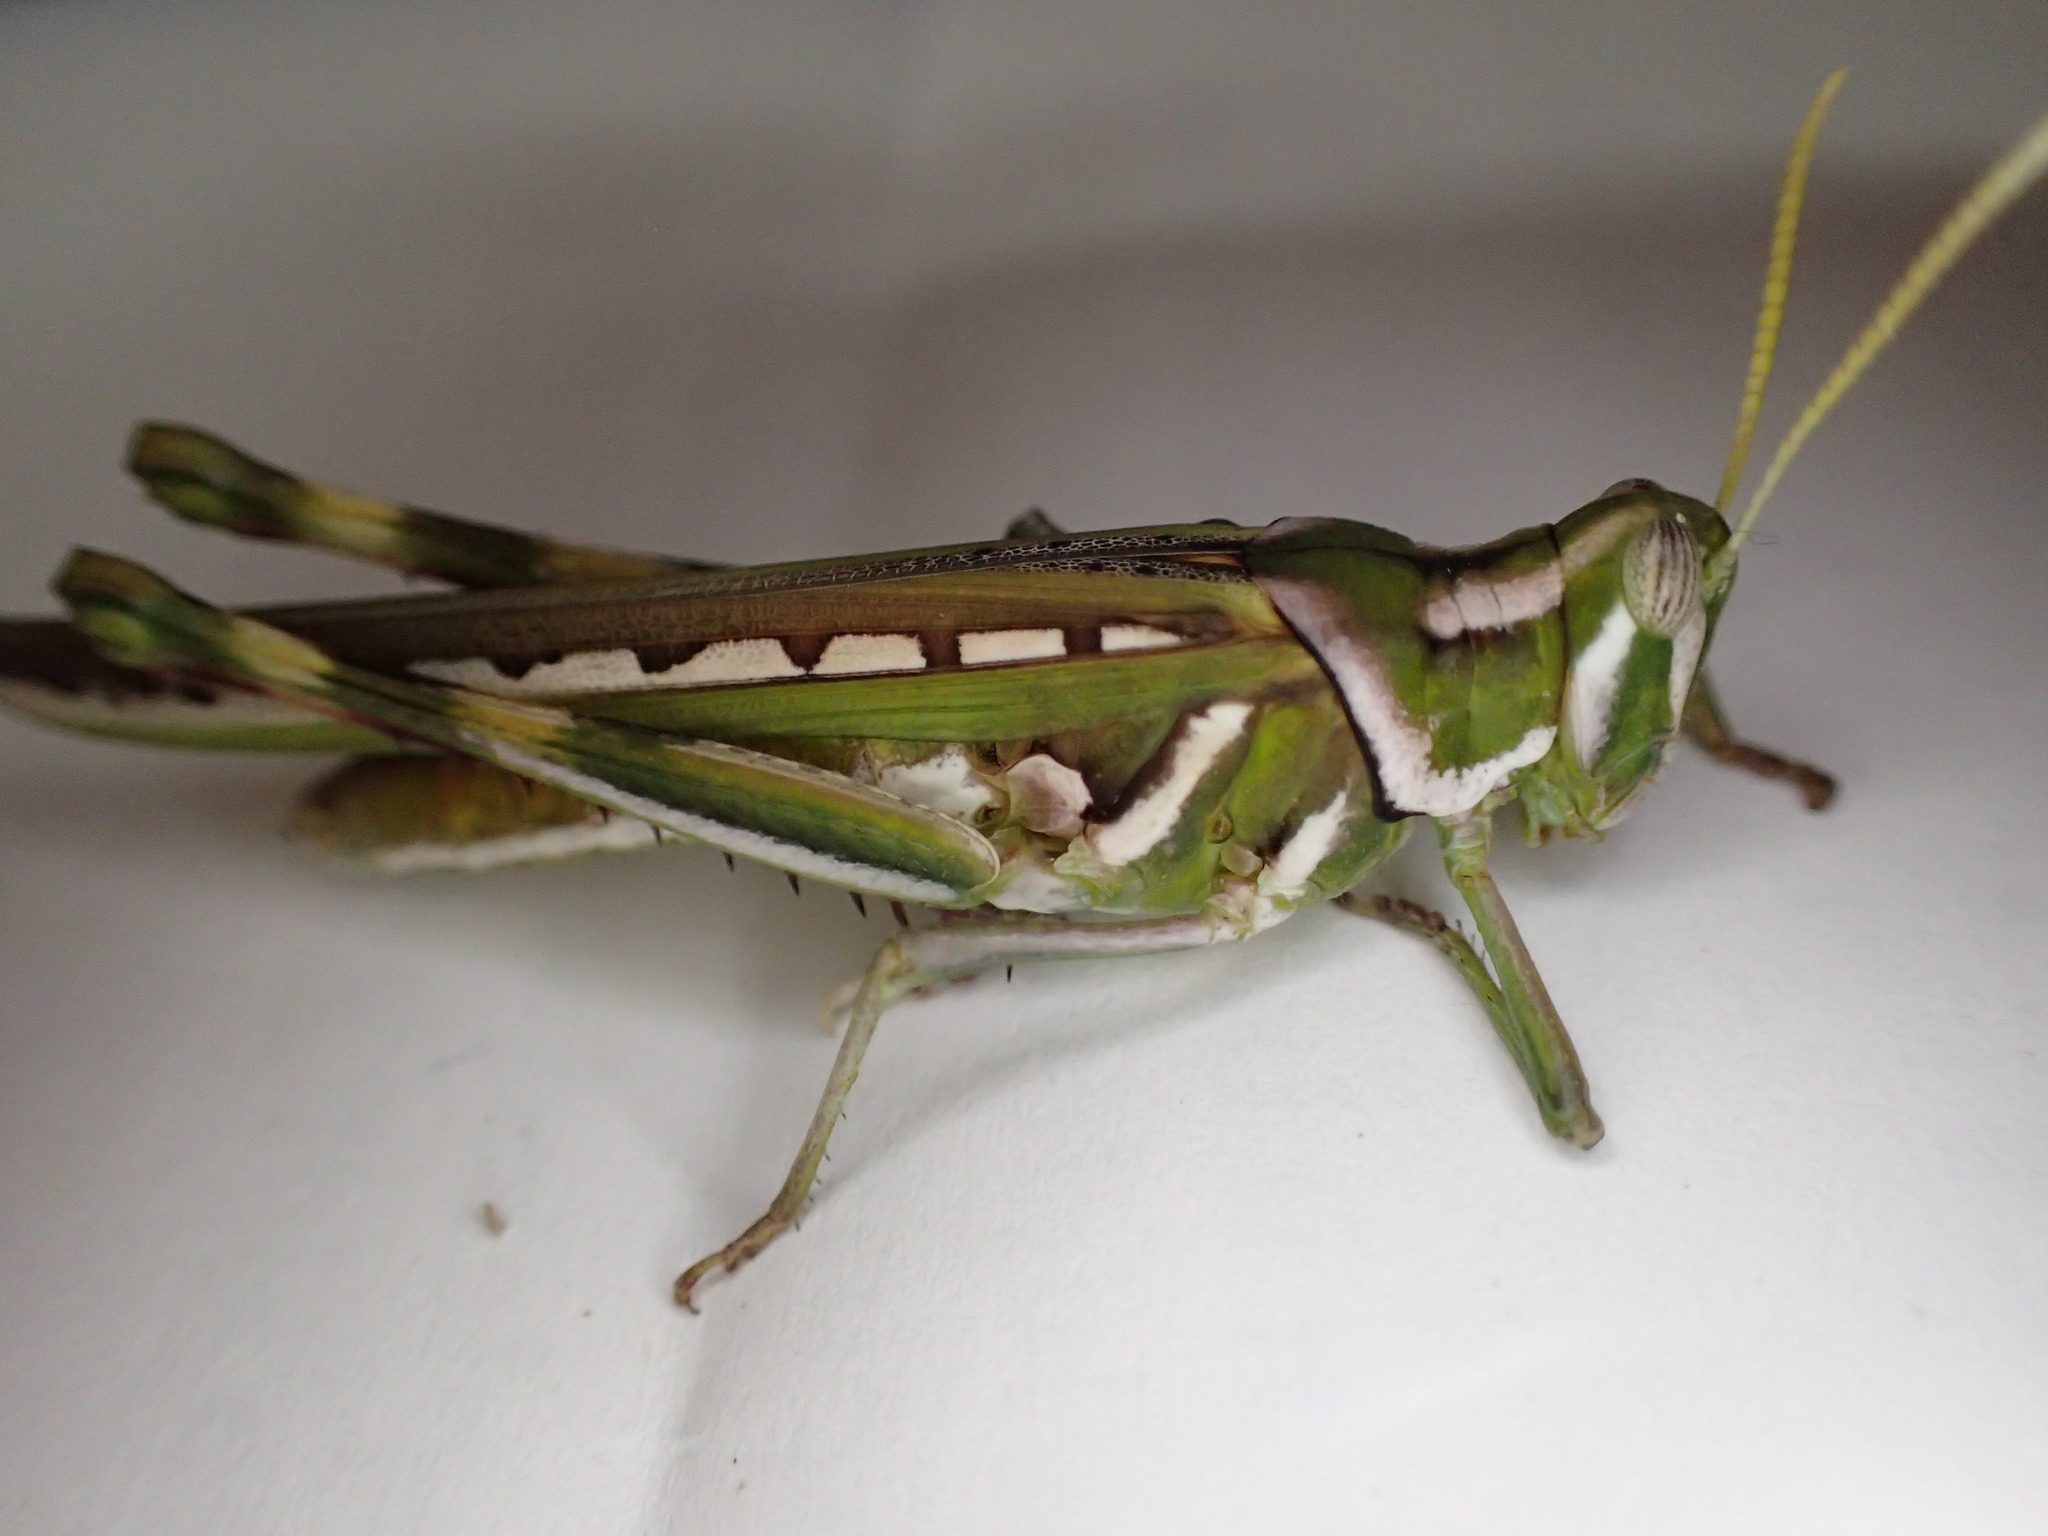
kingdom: Animalia
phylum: Arthropoda
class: Insecta
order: Orthoptera
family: Acrididae
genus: Histrioacrida
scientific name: Histrioacrida roseipennis
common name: Halgania grasshopper
